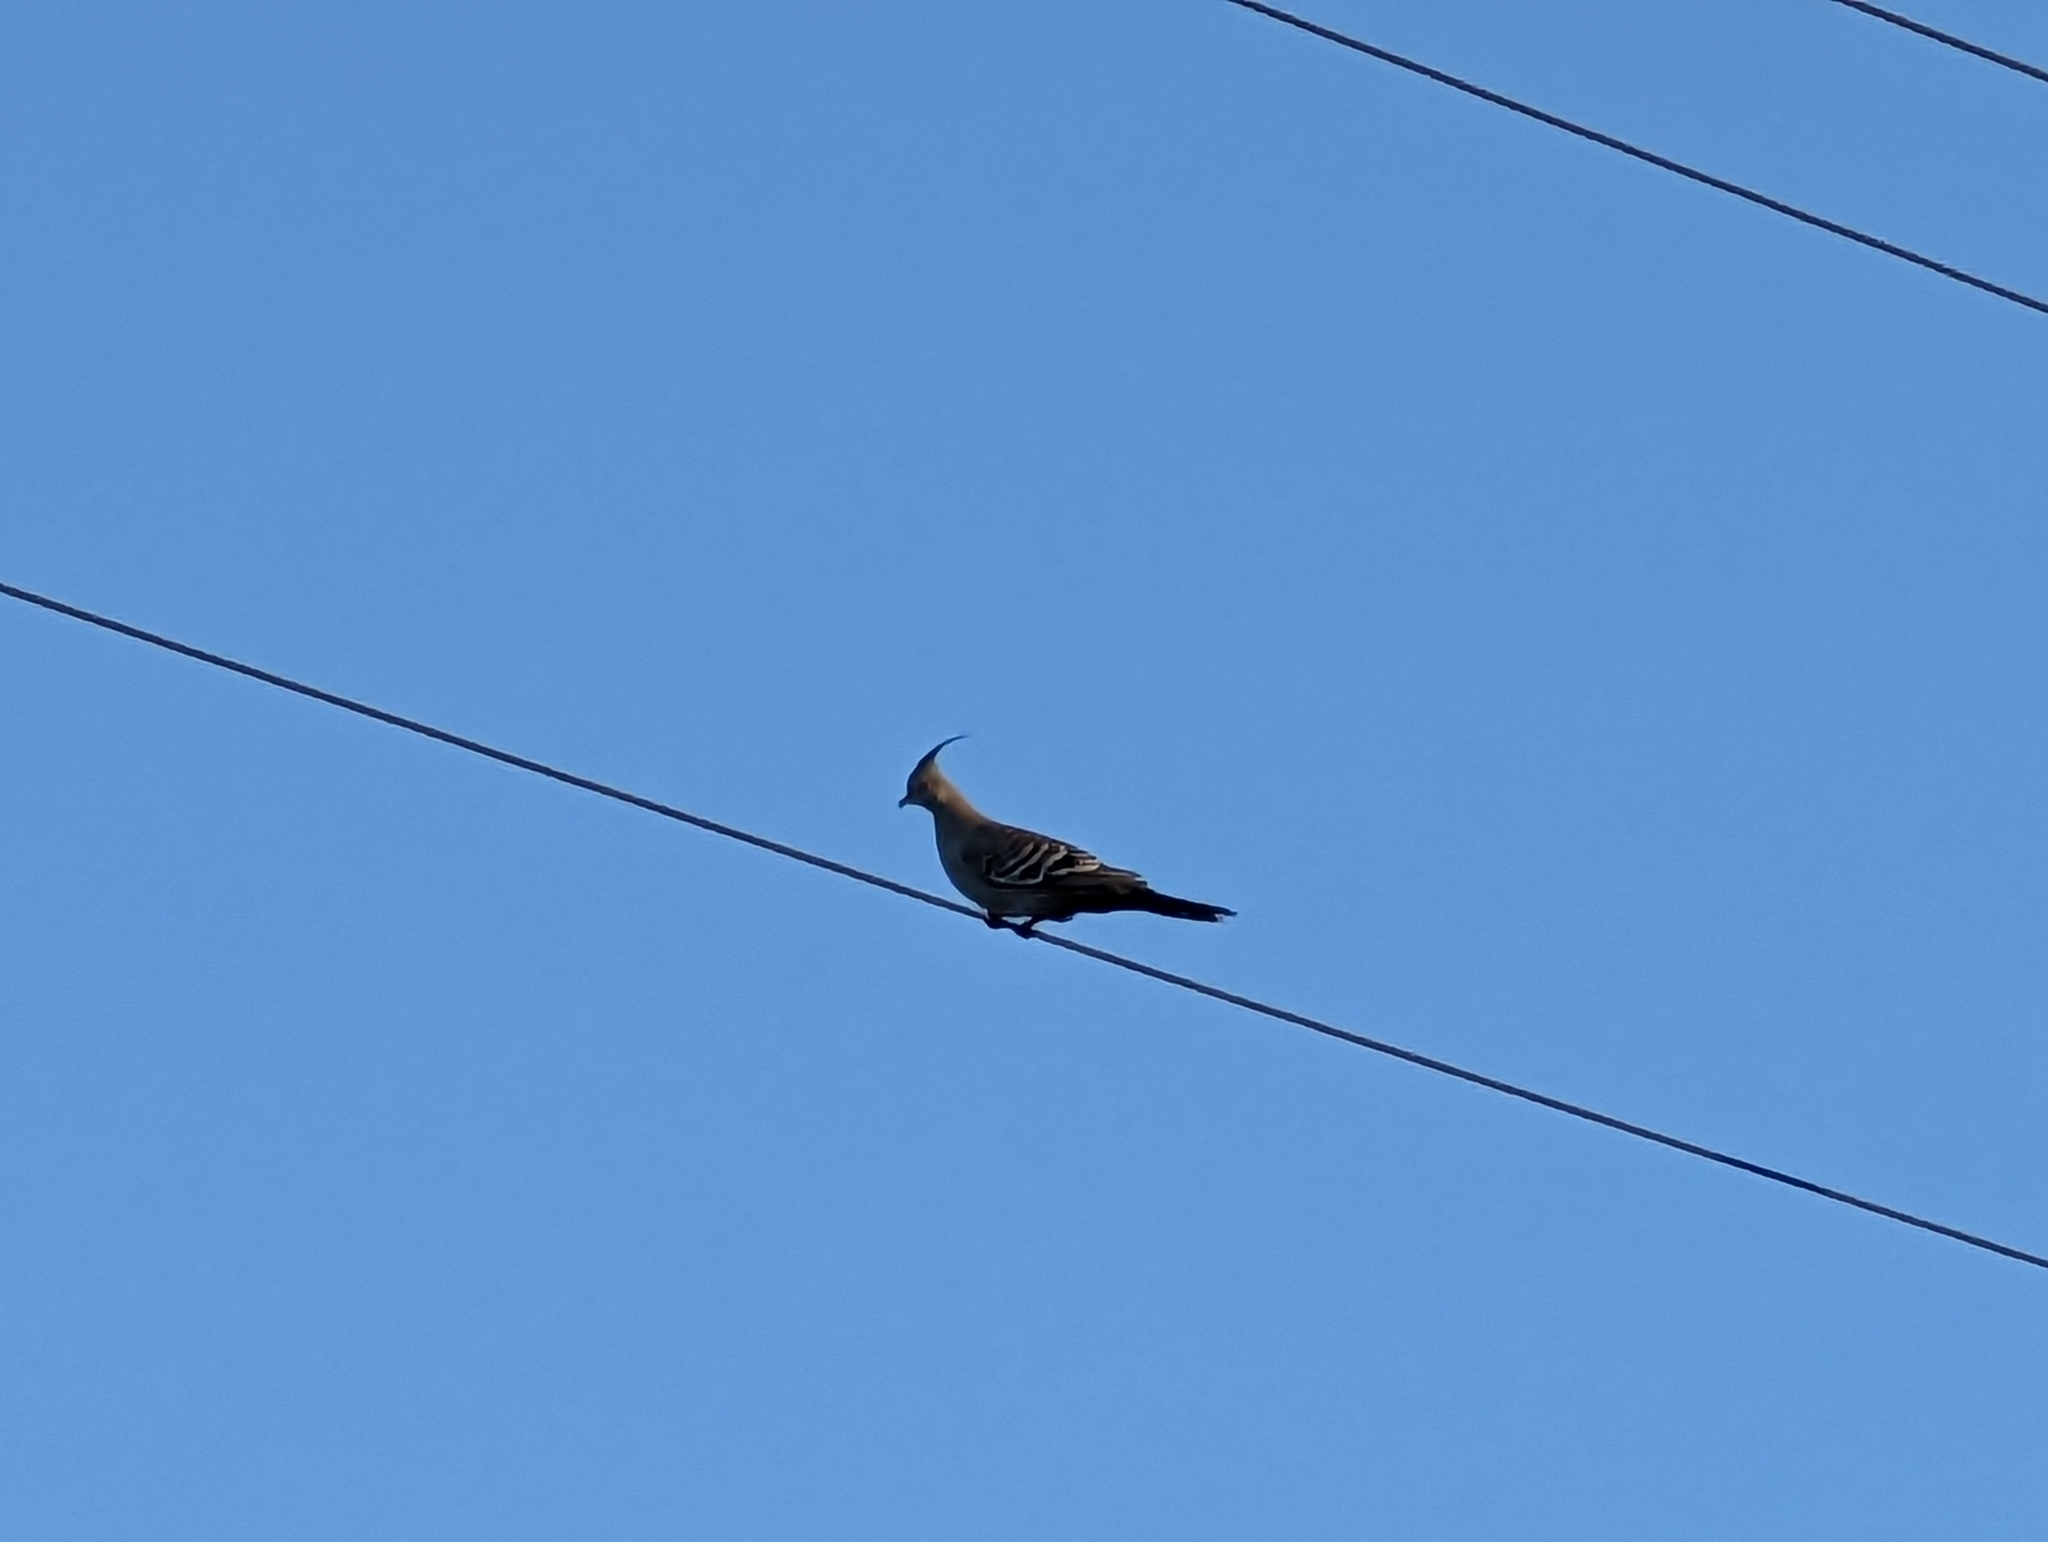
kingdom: Animalia
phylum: Chordata
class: Aves
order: Columbiformes
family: Columbidae
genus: Ocyphaps
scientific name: Ocyphaps lophotes
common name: Crested pigeon
